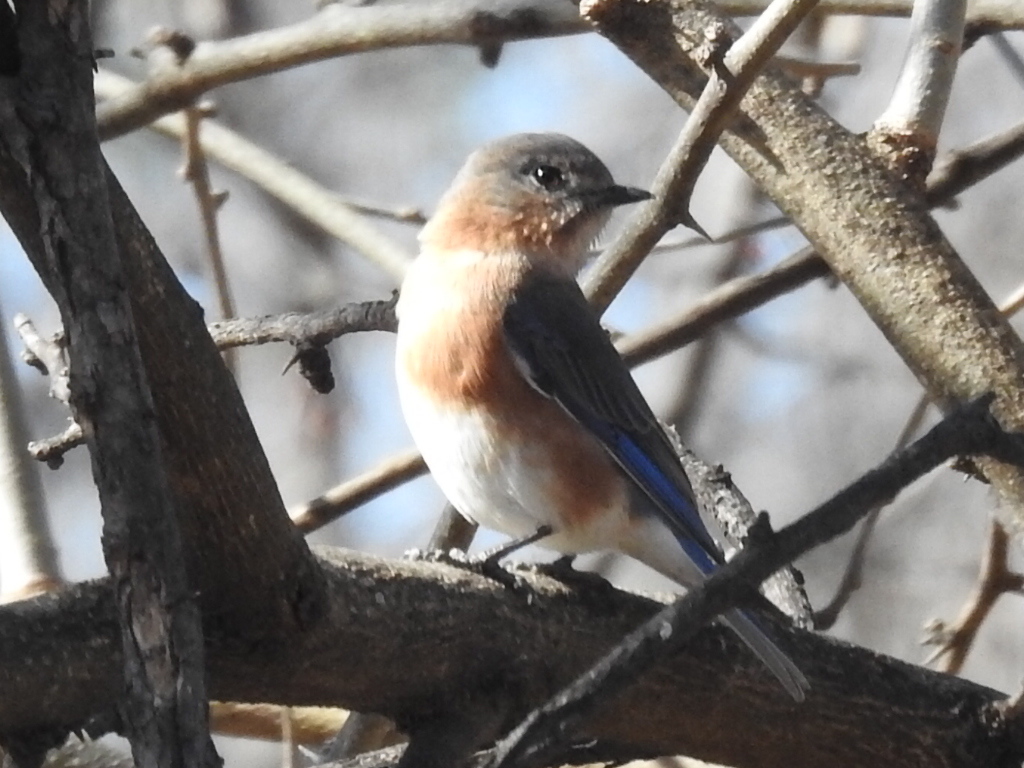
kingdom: Animalia
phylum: Chordata
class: Aves
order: Passeriformes
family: Turdidae
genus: Sialia
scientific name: Sialia sialis
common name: Eastern bluebird
